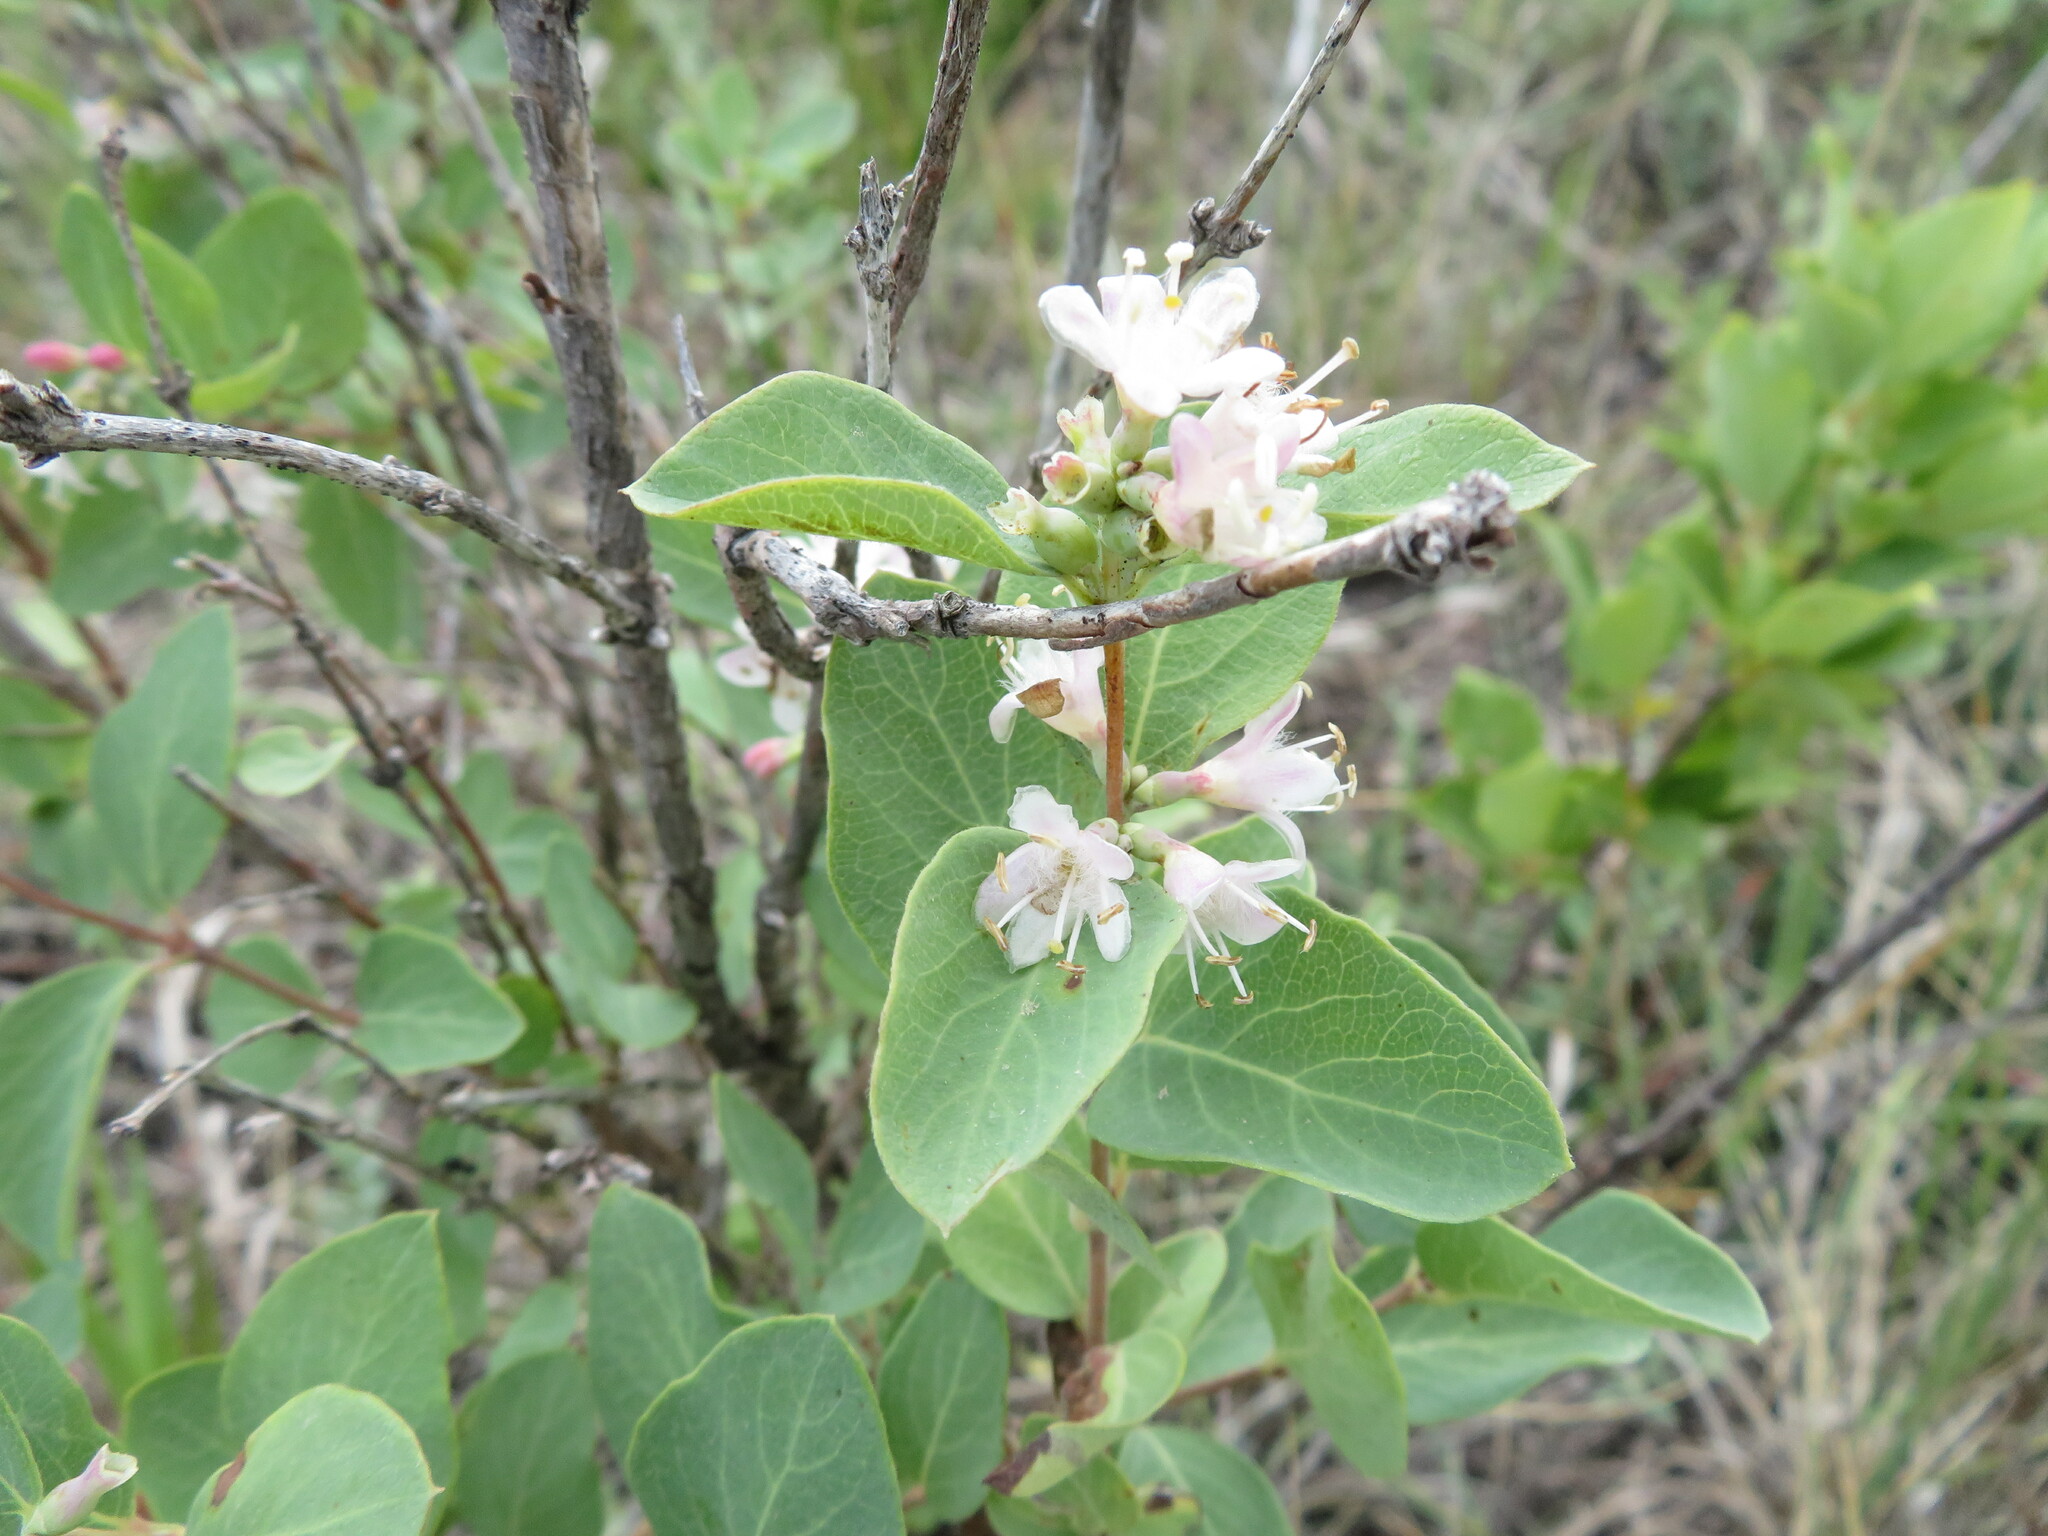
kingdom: Plantae
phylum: Tracheophyta
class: Magnoliopsida
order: Dipsacales
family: Caprifoliaceae
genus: Symphoricarpos
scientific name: Symphoricarpos occidentalis
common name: Wolfberry
